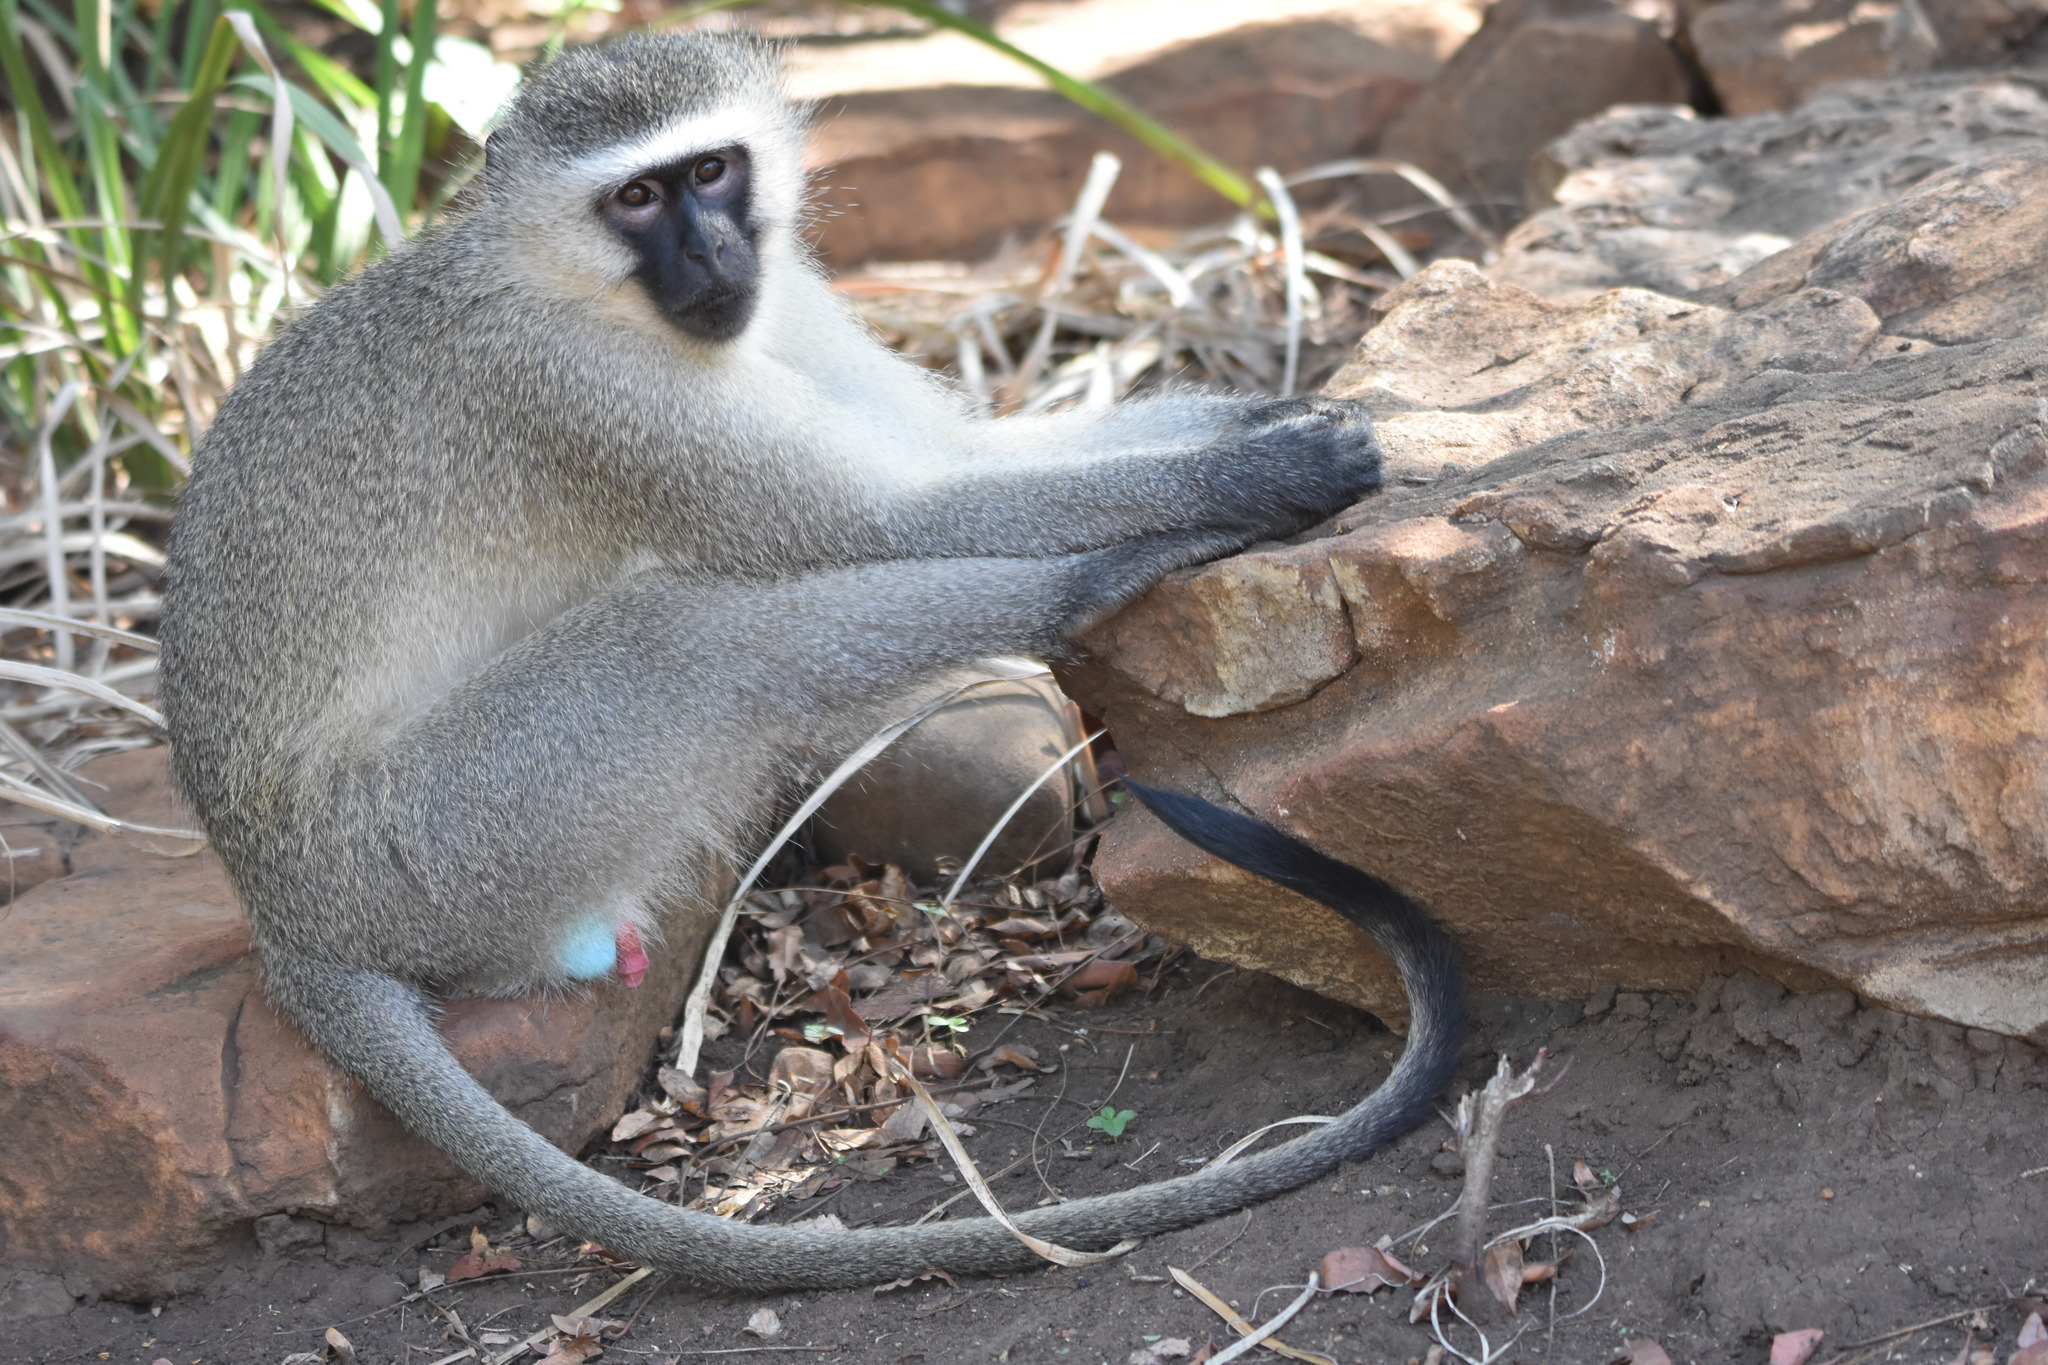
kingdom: Animalia
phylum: Chordata
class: Mammalia
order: Primates
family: Cercopithecidae
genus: Chlorocebus
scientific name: Chlorocebus pygerythrus
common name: Vervet monkey
